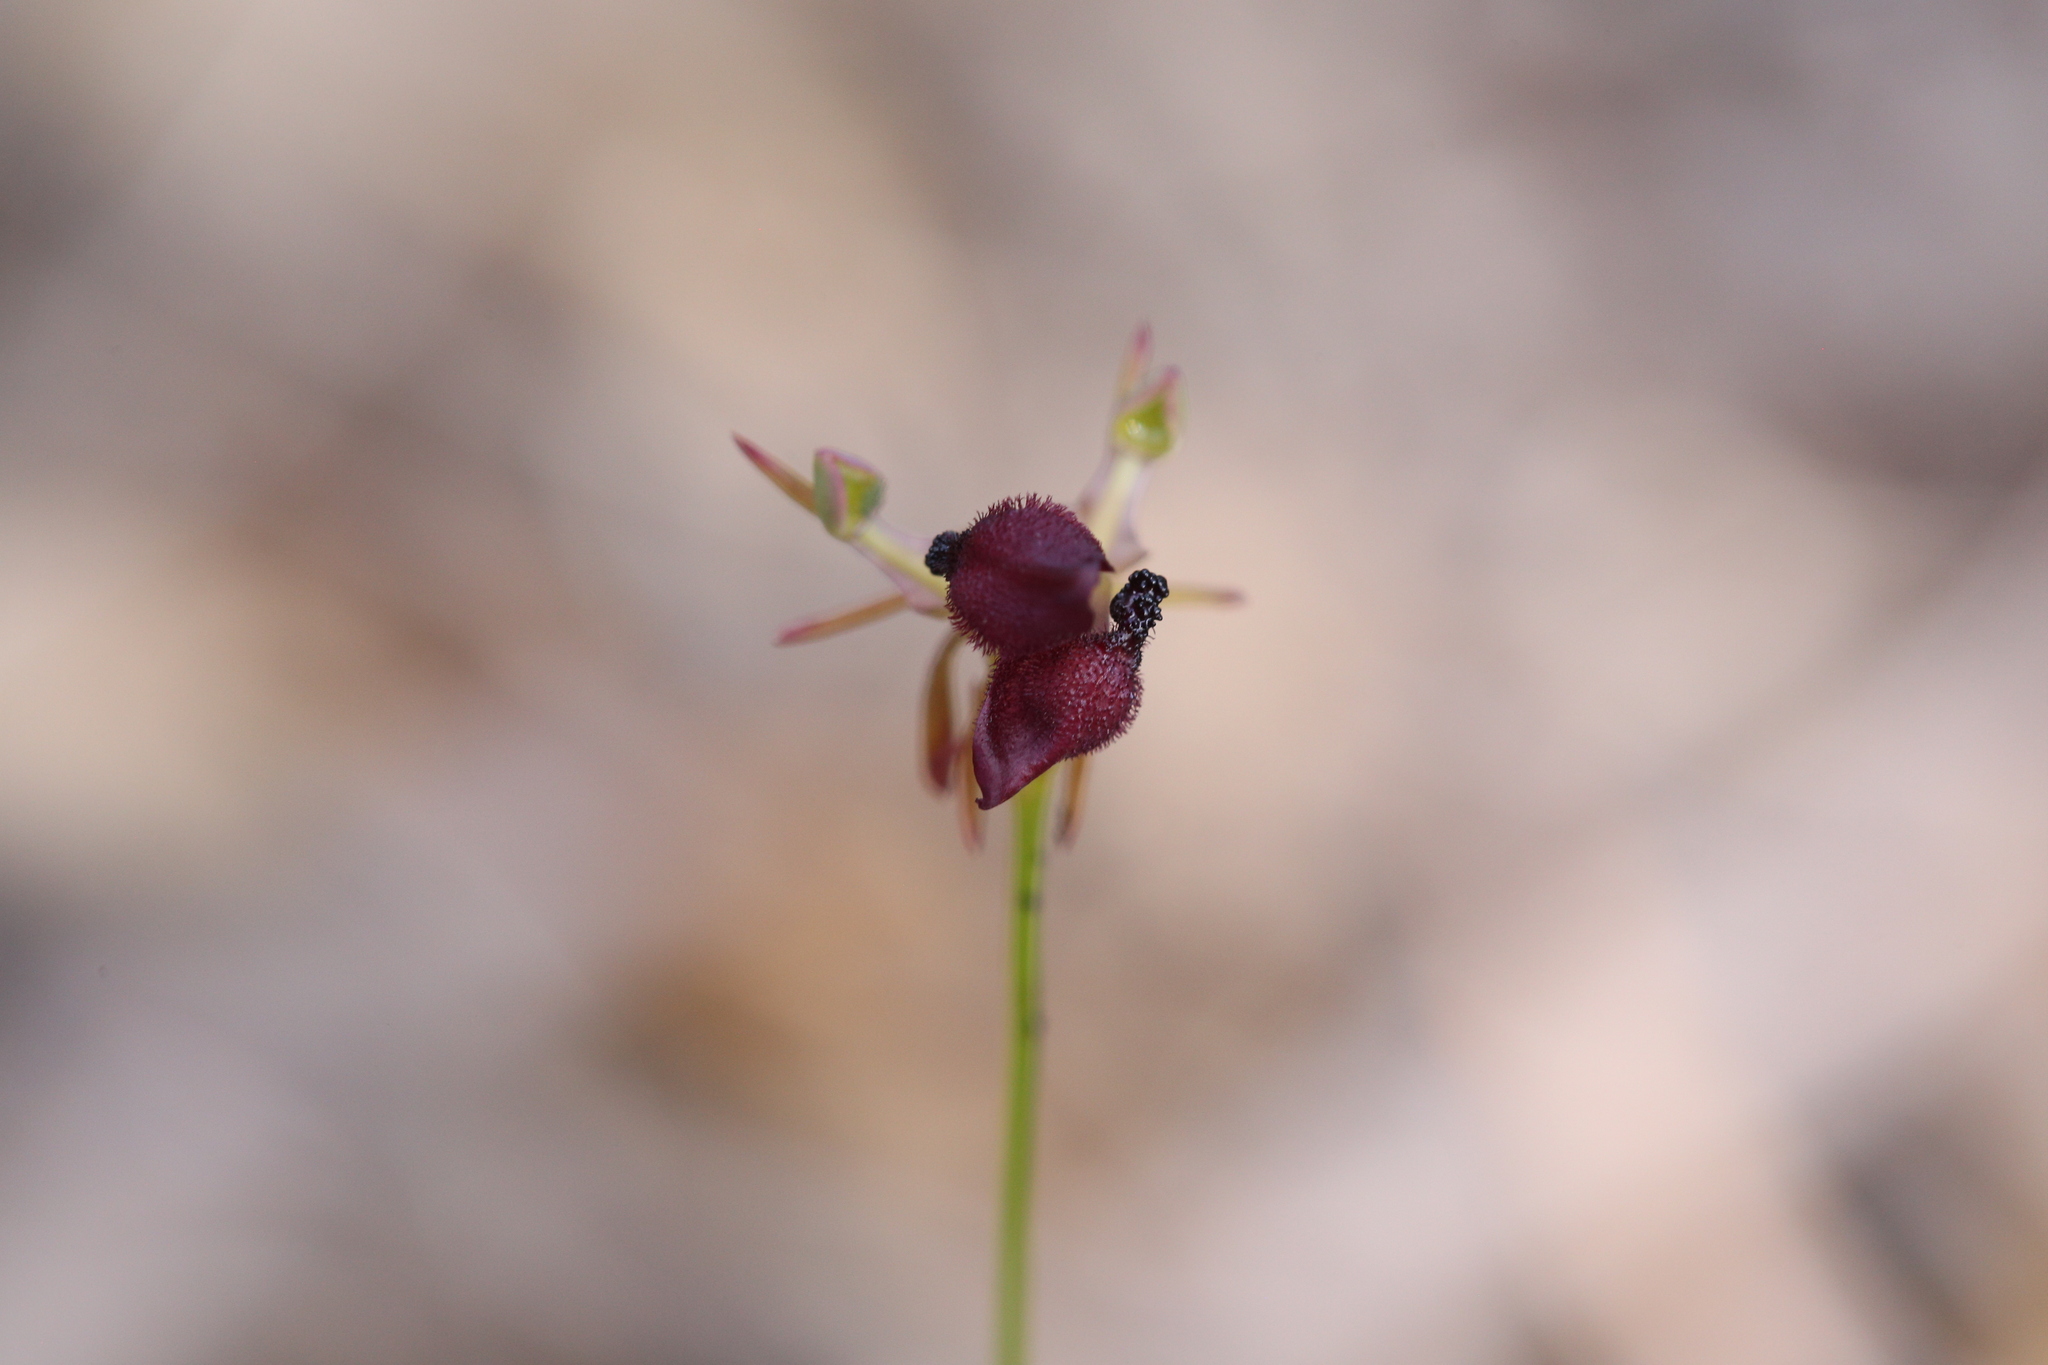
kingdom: Plantae
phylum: Tracheophyta
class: Liliopsida
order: Asparagales
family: Orchidaceae
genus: Drakaea
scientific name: Drakaea glyptodon
